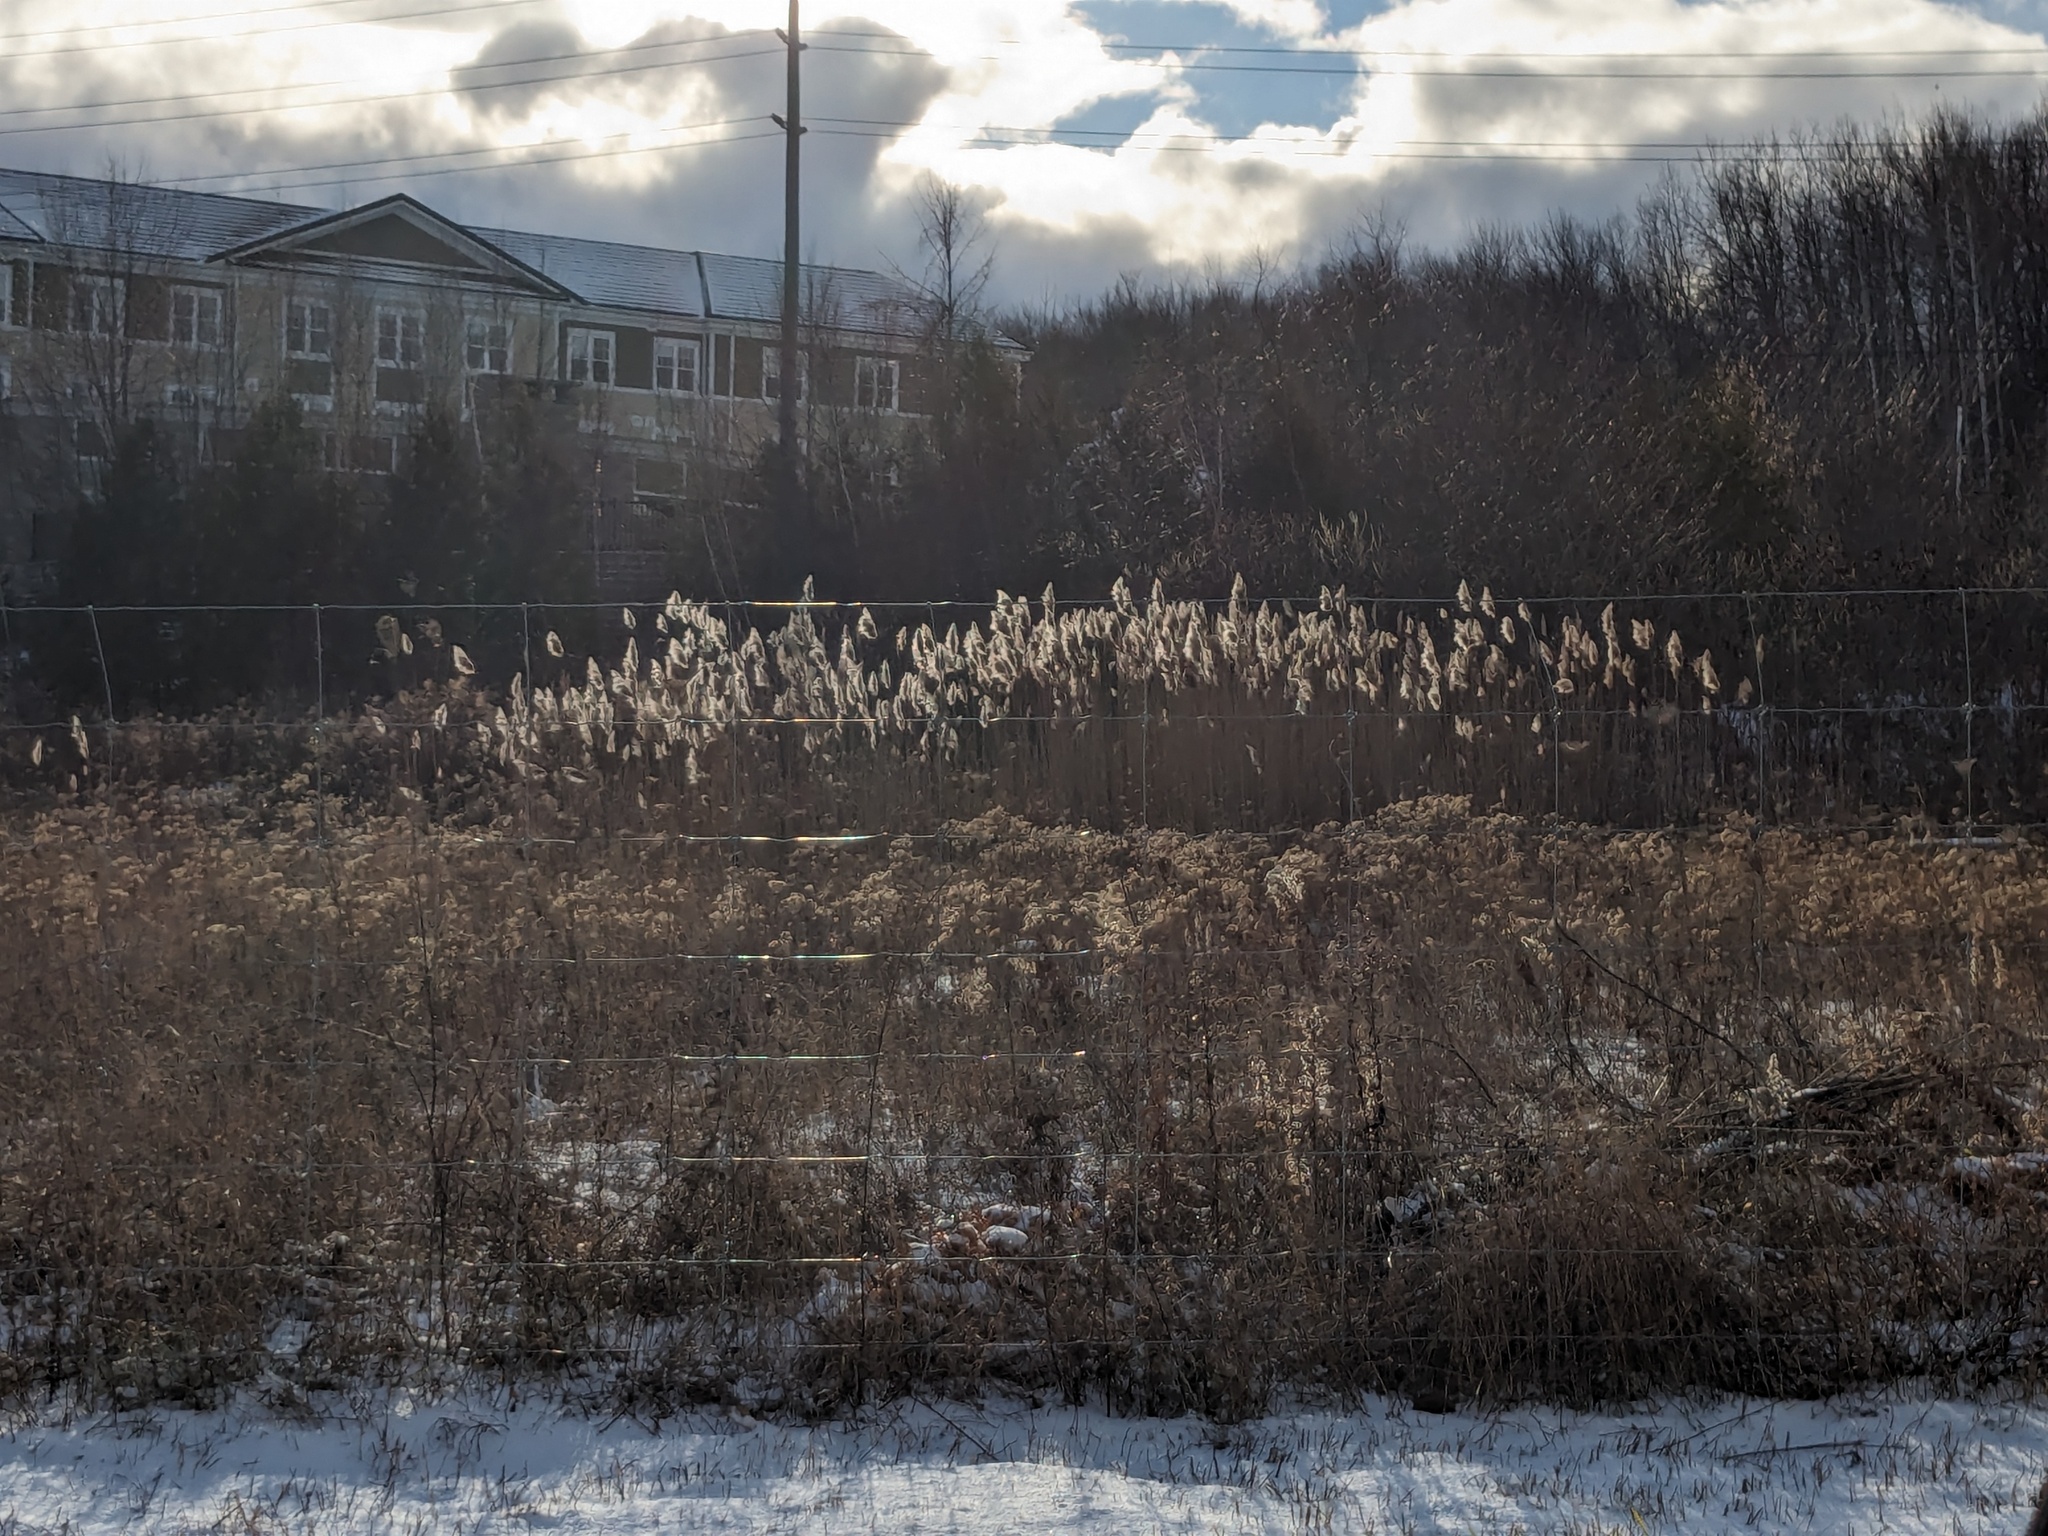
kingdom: Plantae
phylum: Tracheophyta
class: Liliopsida
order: Poales
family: Poaceae
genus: Phragmites
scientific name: Phragmites australis
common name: Common reed
